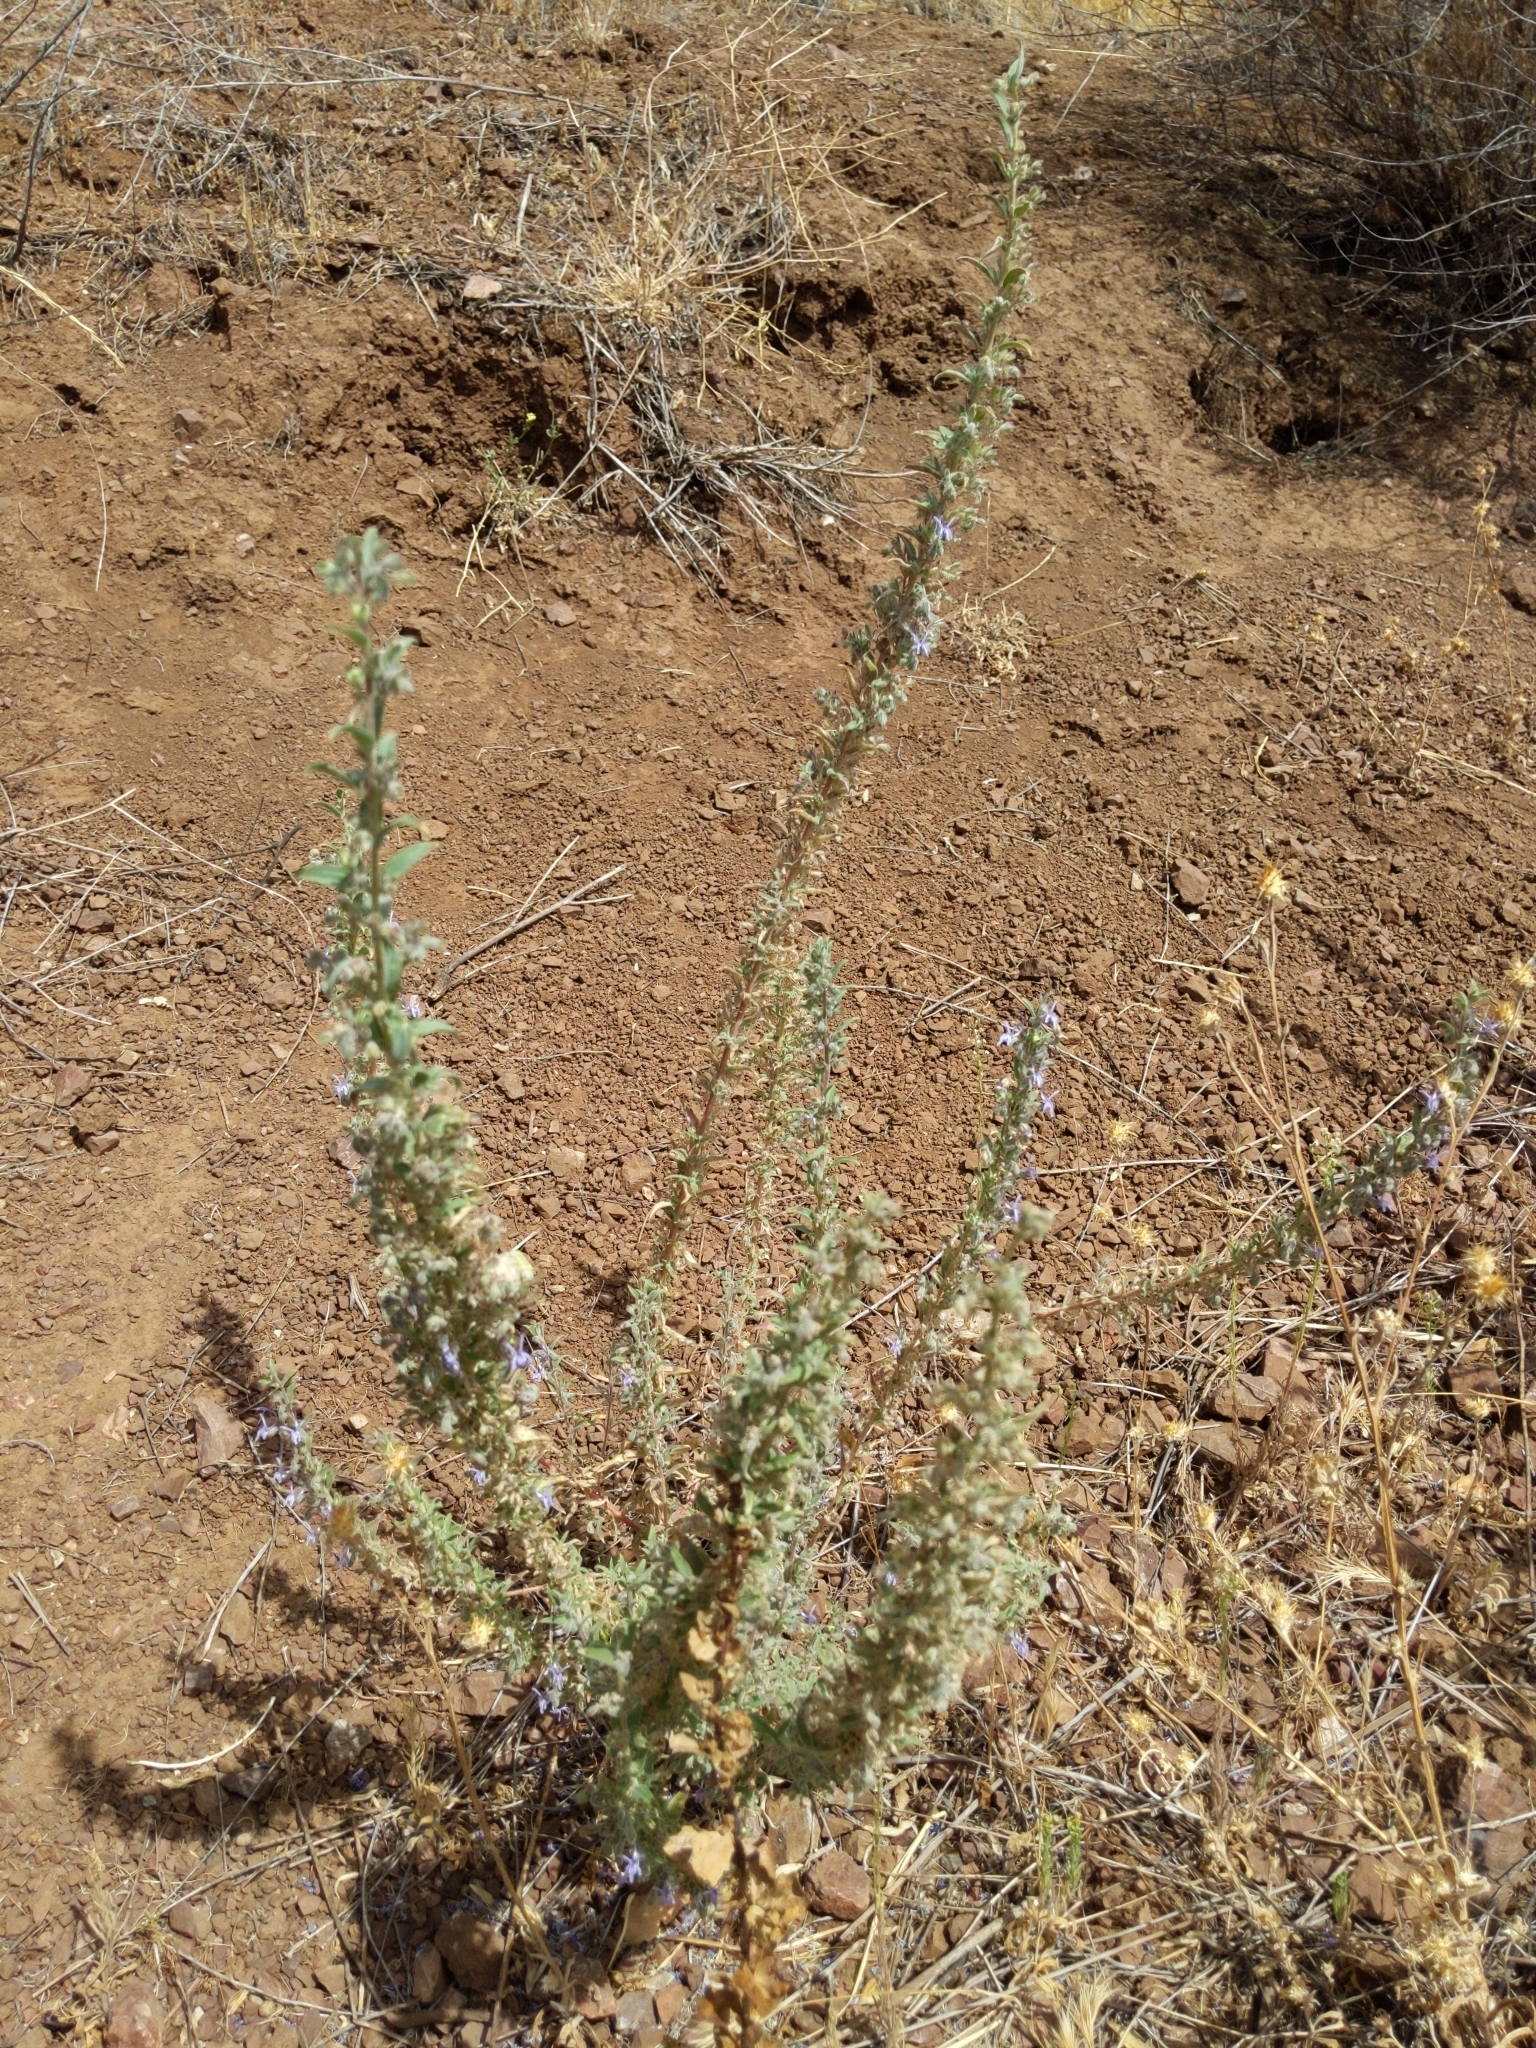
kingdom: Plantae
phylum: Tracheophyta
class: Magnoliopsida
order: Lamiales
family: Lamiaceae
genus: Trichostema
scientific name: Trichostema lanceolatum
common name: Vinegar-weed
